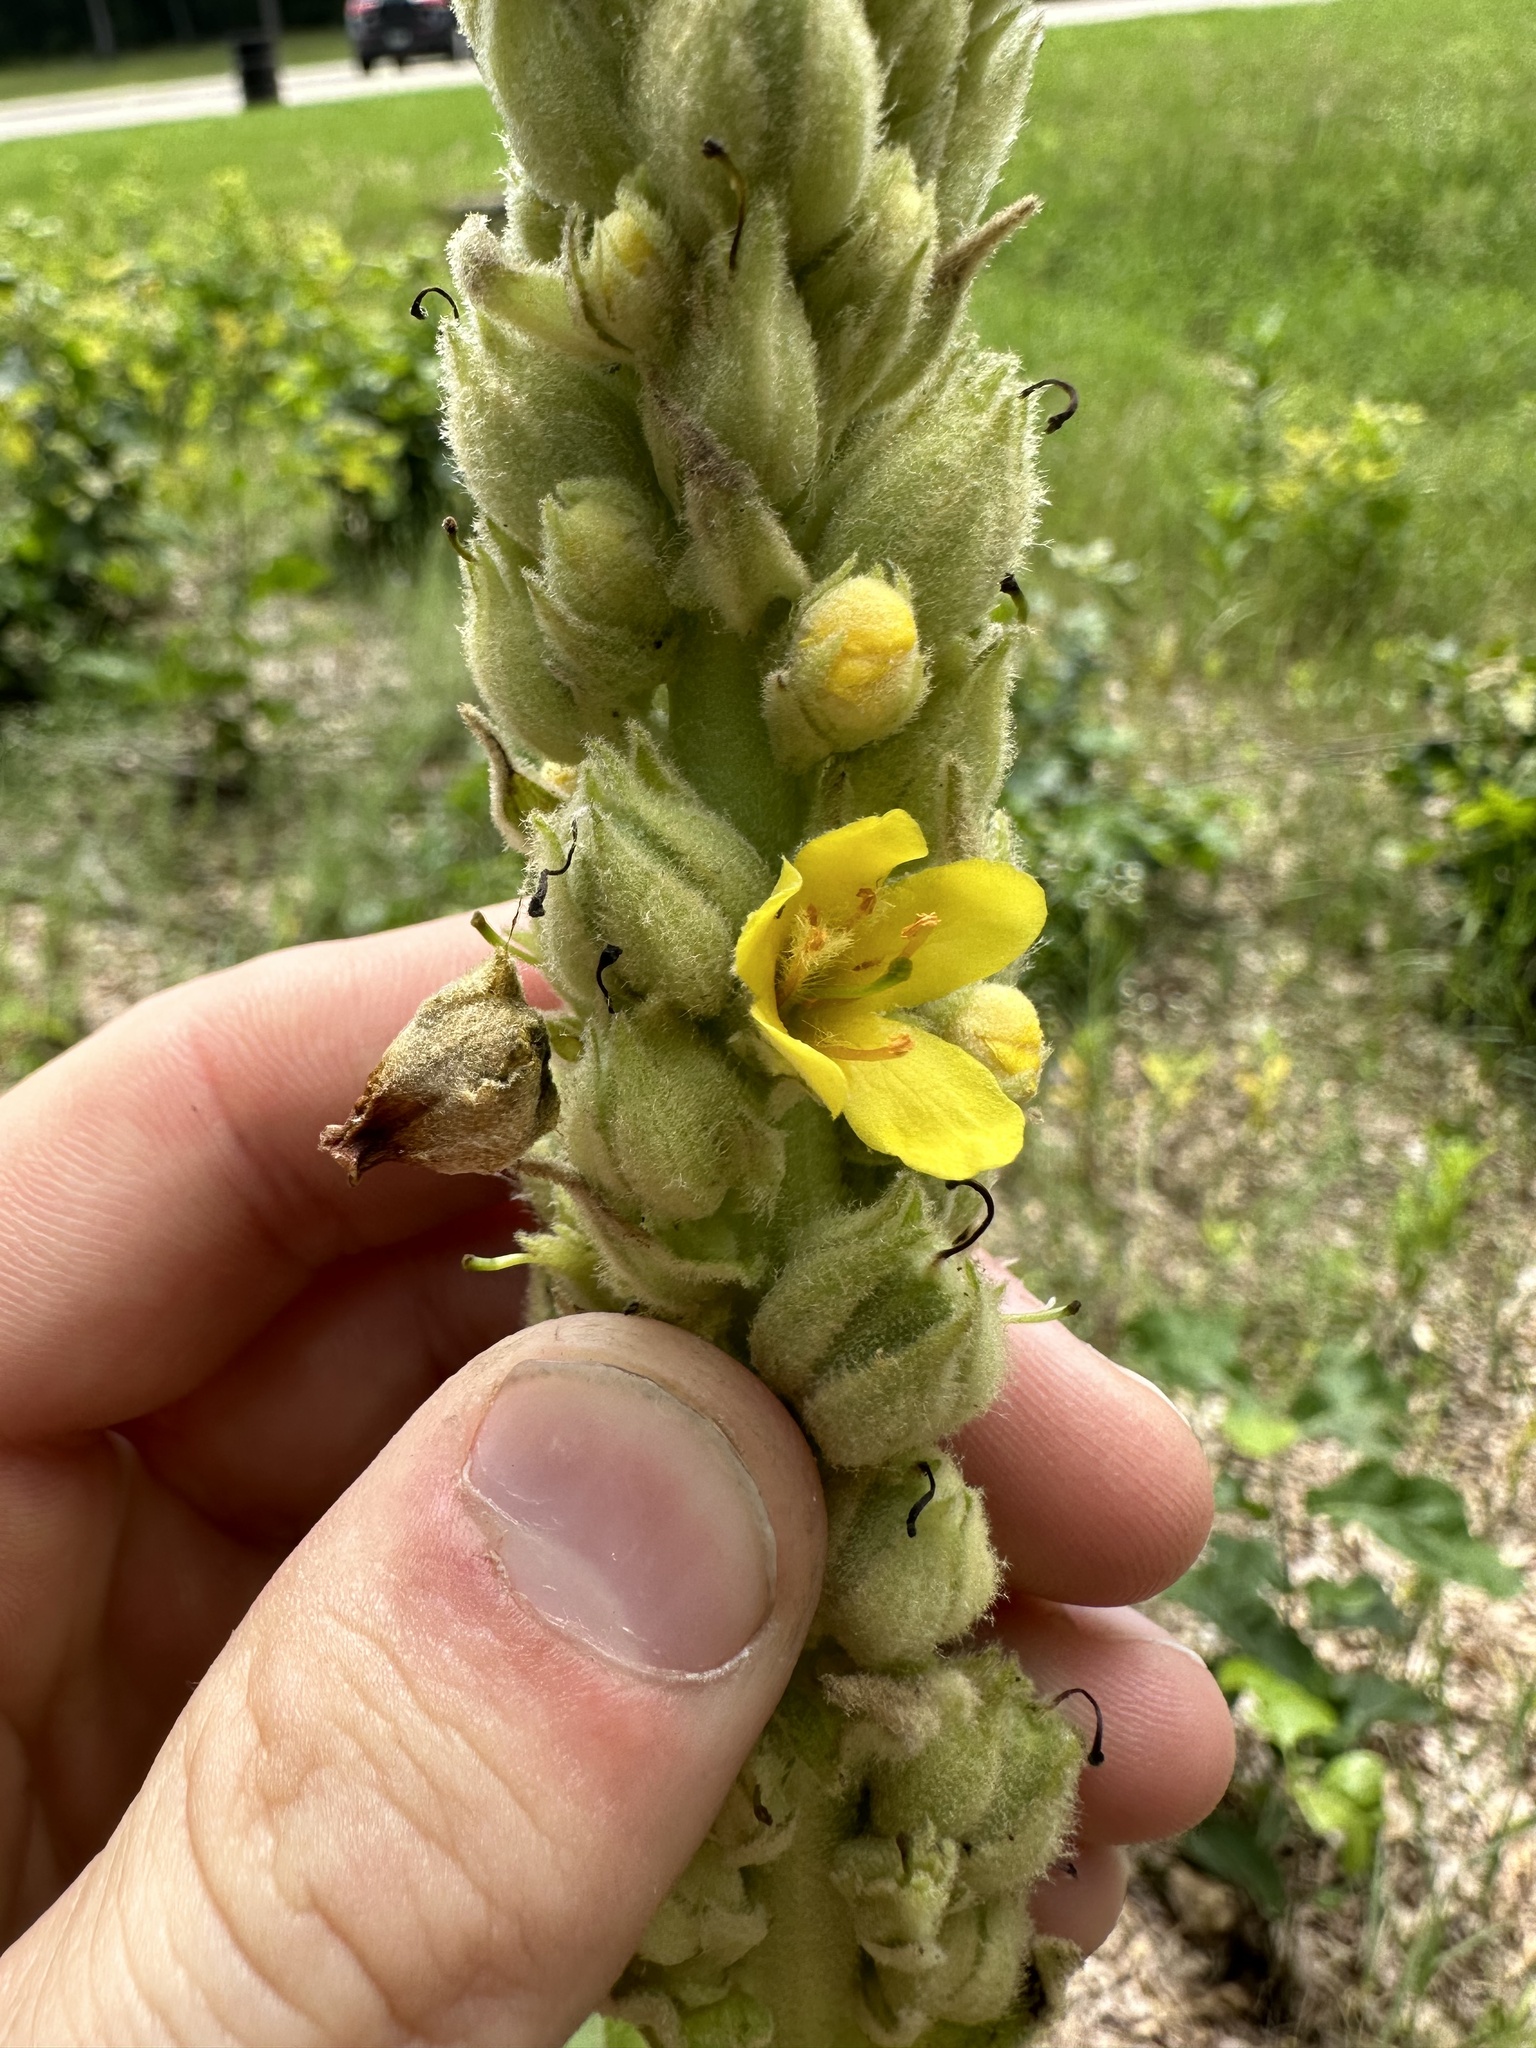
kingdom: Plantae
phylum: Tracheophyta
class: Magnoliopsida
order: Lamiales
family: Scrophulariaceae
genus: Verbascum
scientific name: Verbascum thapsus
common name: Common mullein
